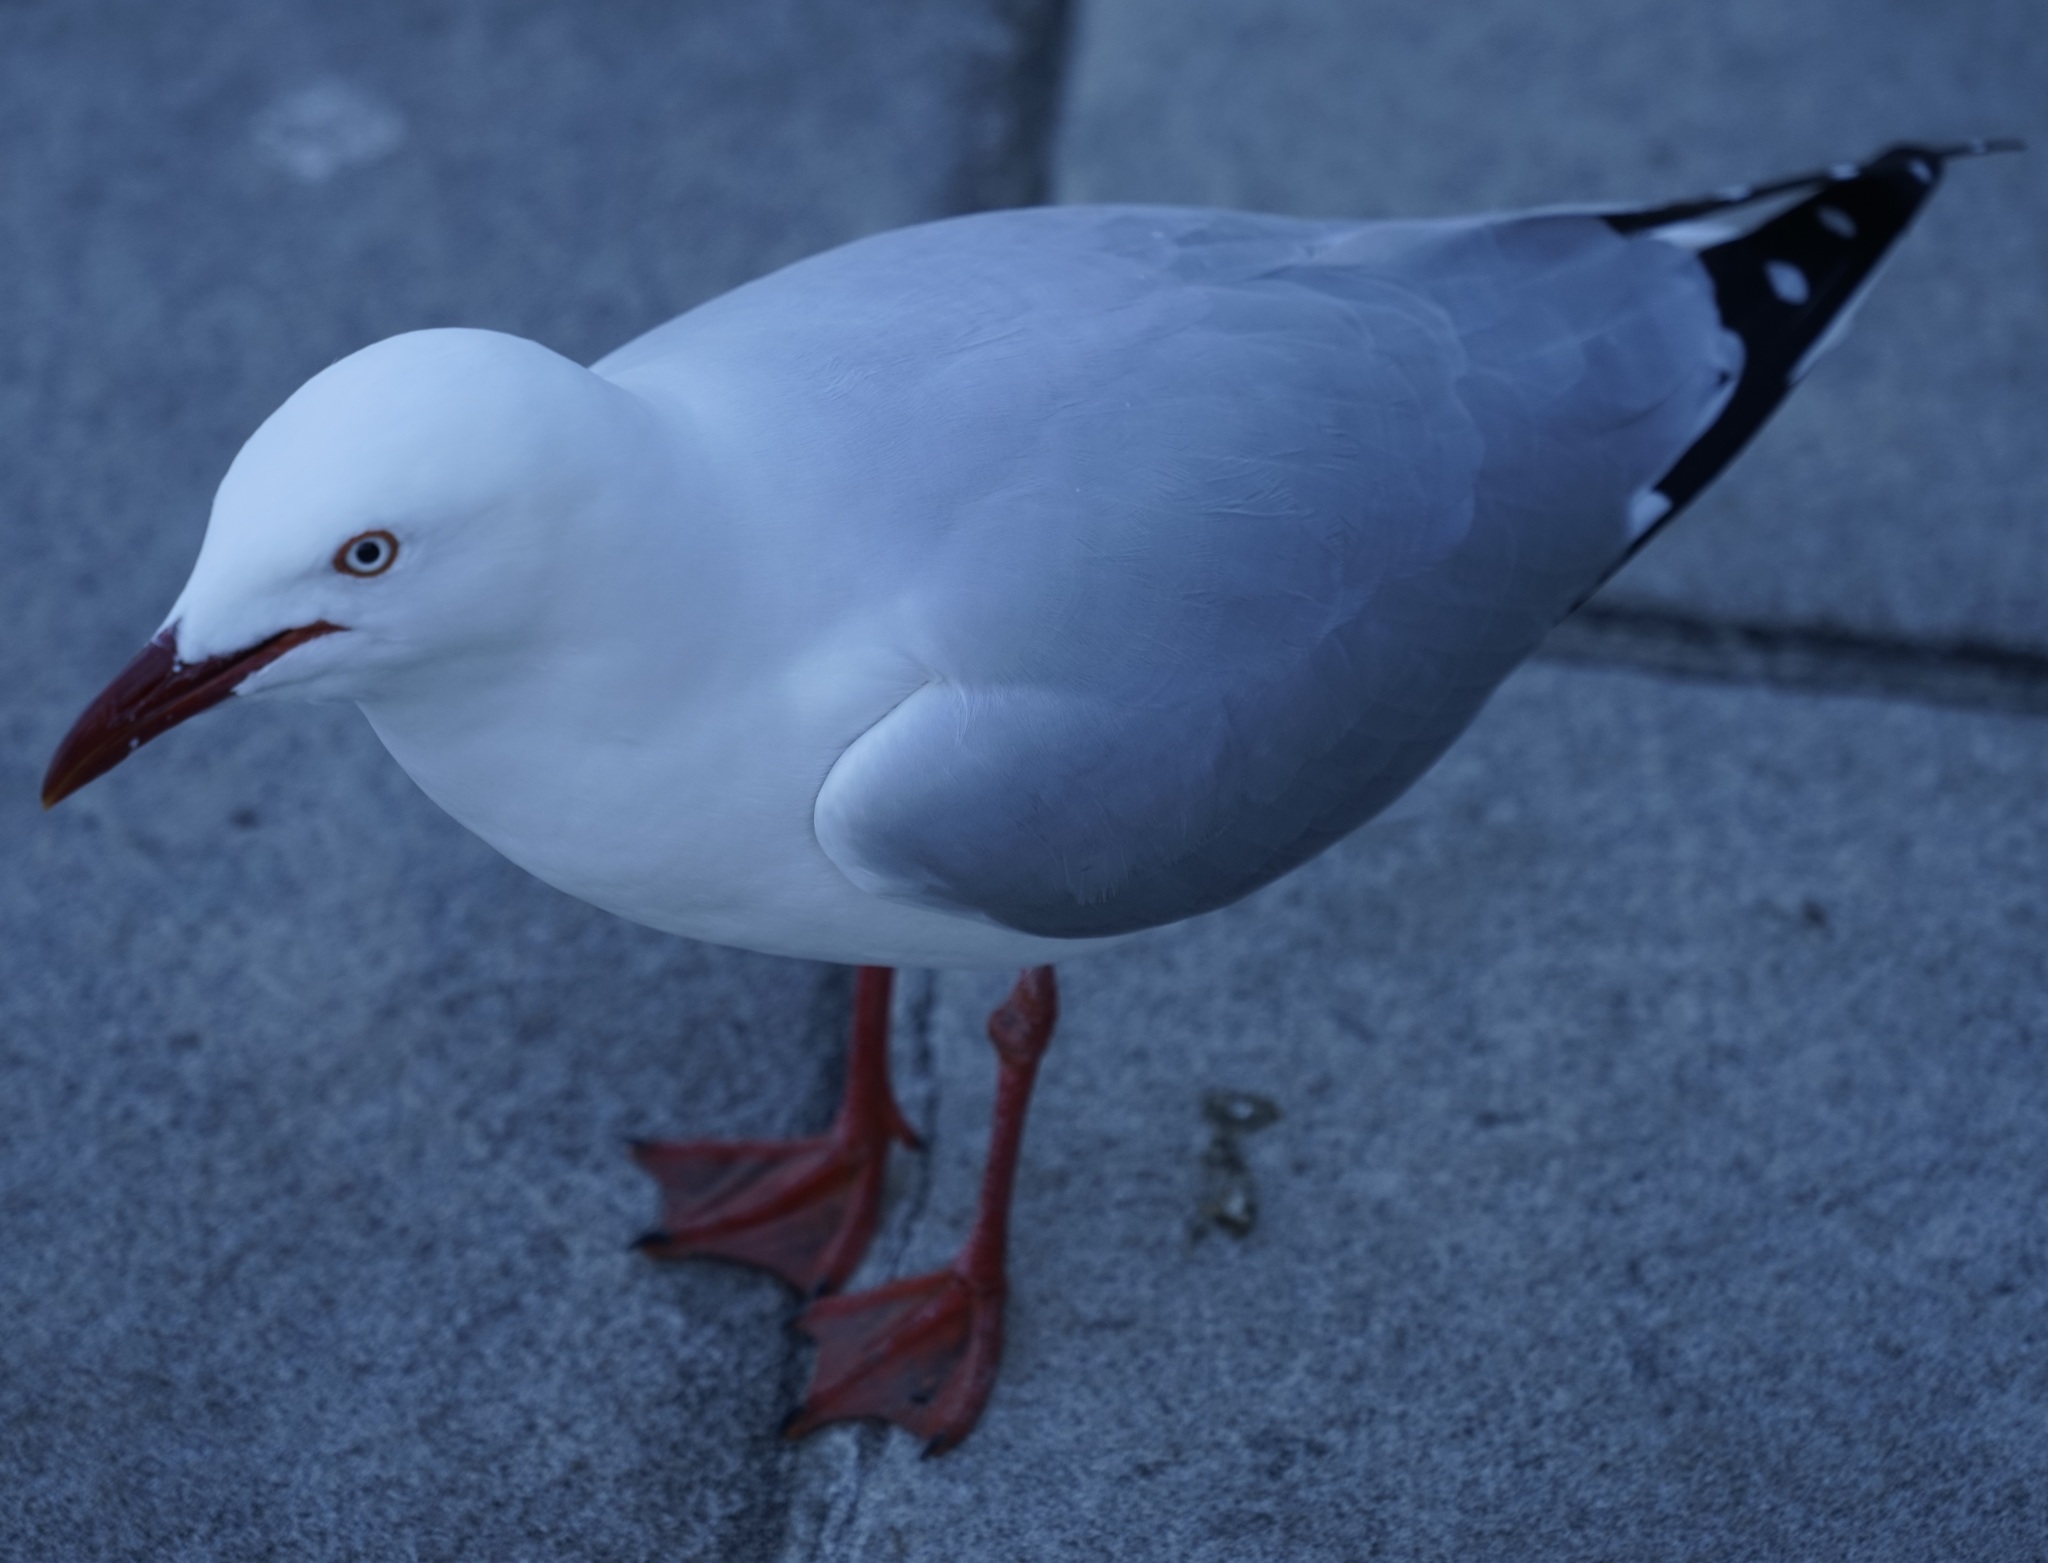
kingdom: Animalia
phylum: Chordata
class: Aves
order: Charadriiformes
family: Laridae
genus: Chroicocephalus
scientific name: Chroicocephalus novaehollandiae
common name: Silver gull
